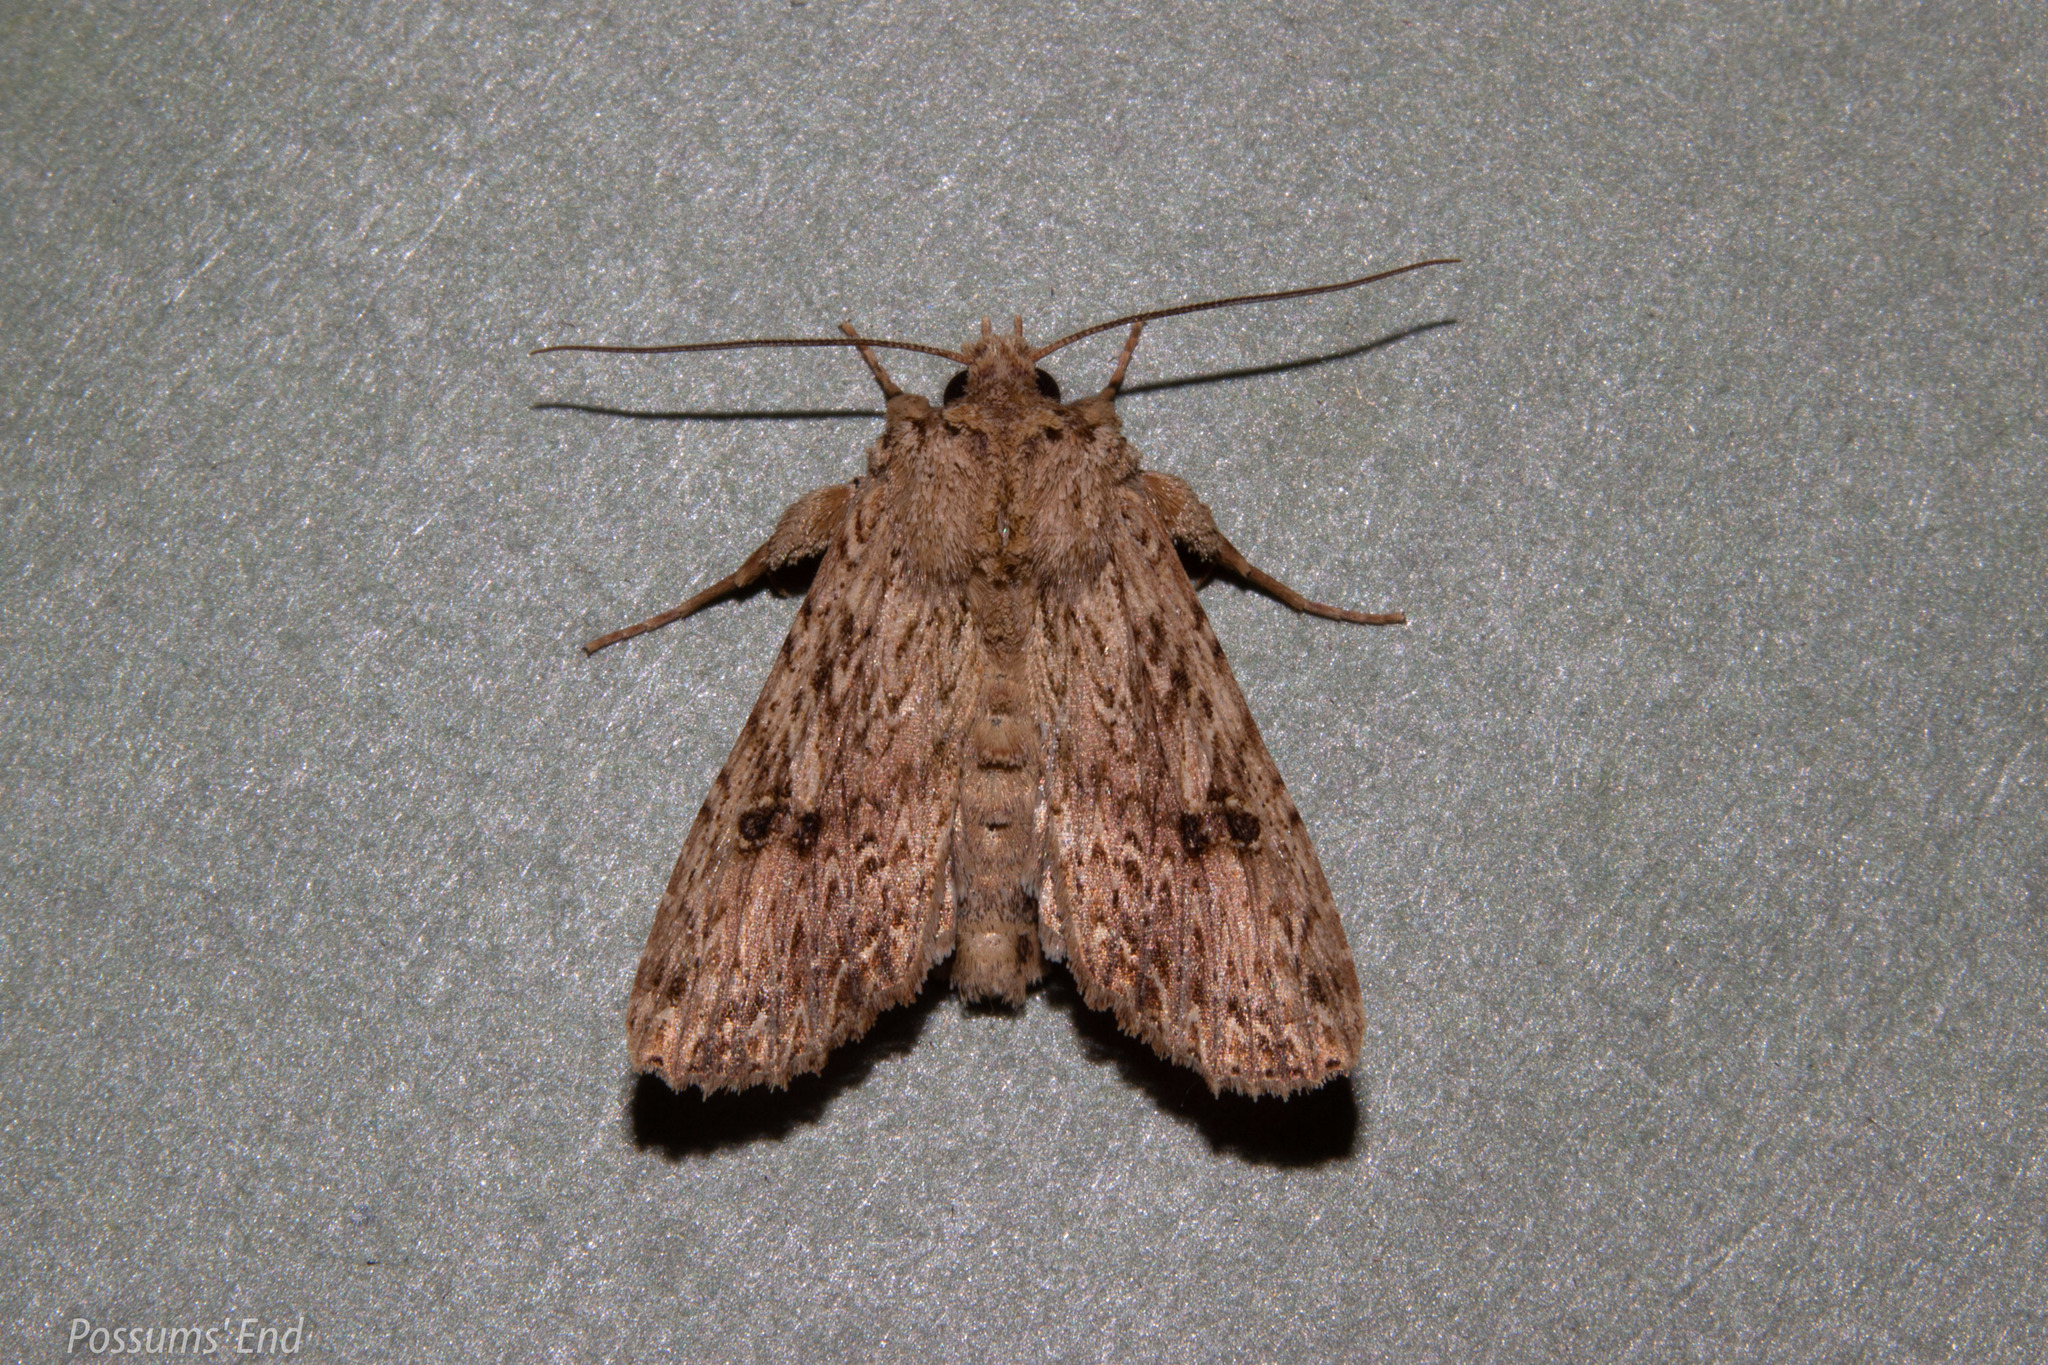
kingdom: Animalia
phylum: Arthropoda
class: Insecta
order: Lepidoptera
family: Noctuidae
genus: Meterana
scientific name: Meterana pansicolor
